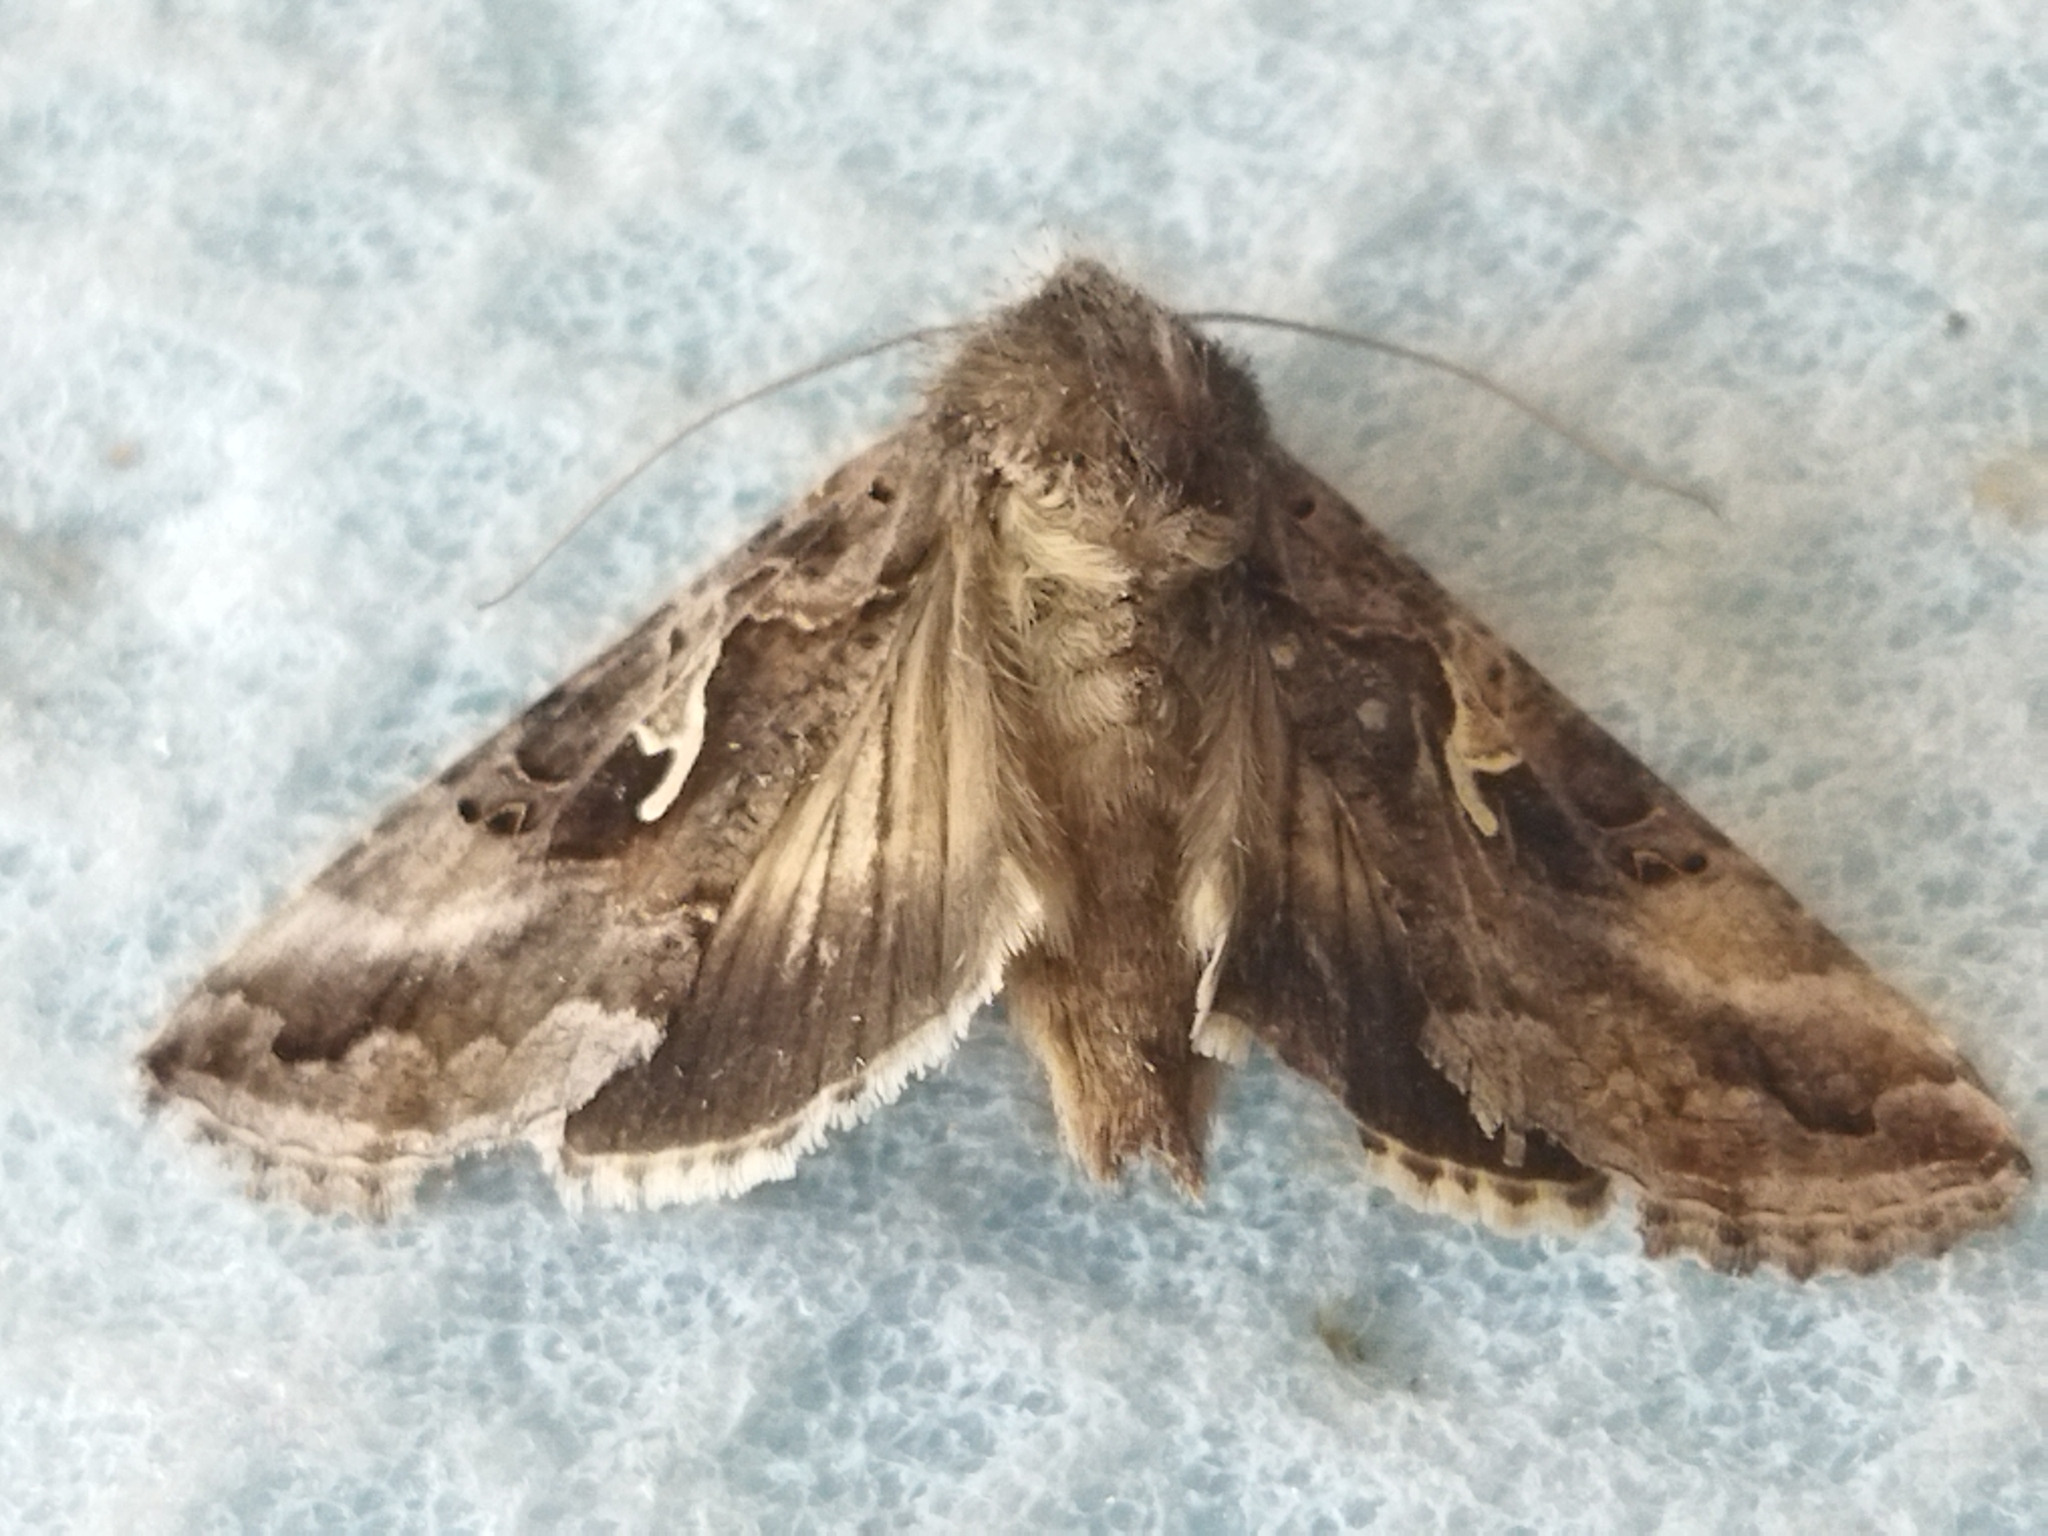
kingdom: Animalia
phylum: Arthropoda
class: Insecta
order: Lepidoptera
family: Noctuidae
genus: Autographa
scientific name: Autographa gamma
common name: Silver y
